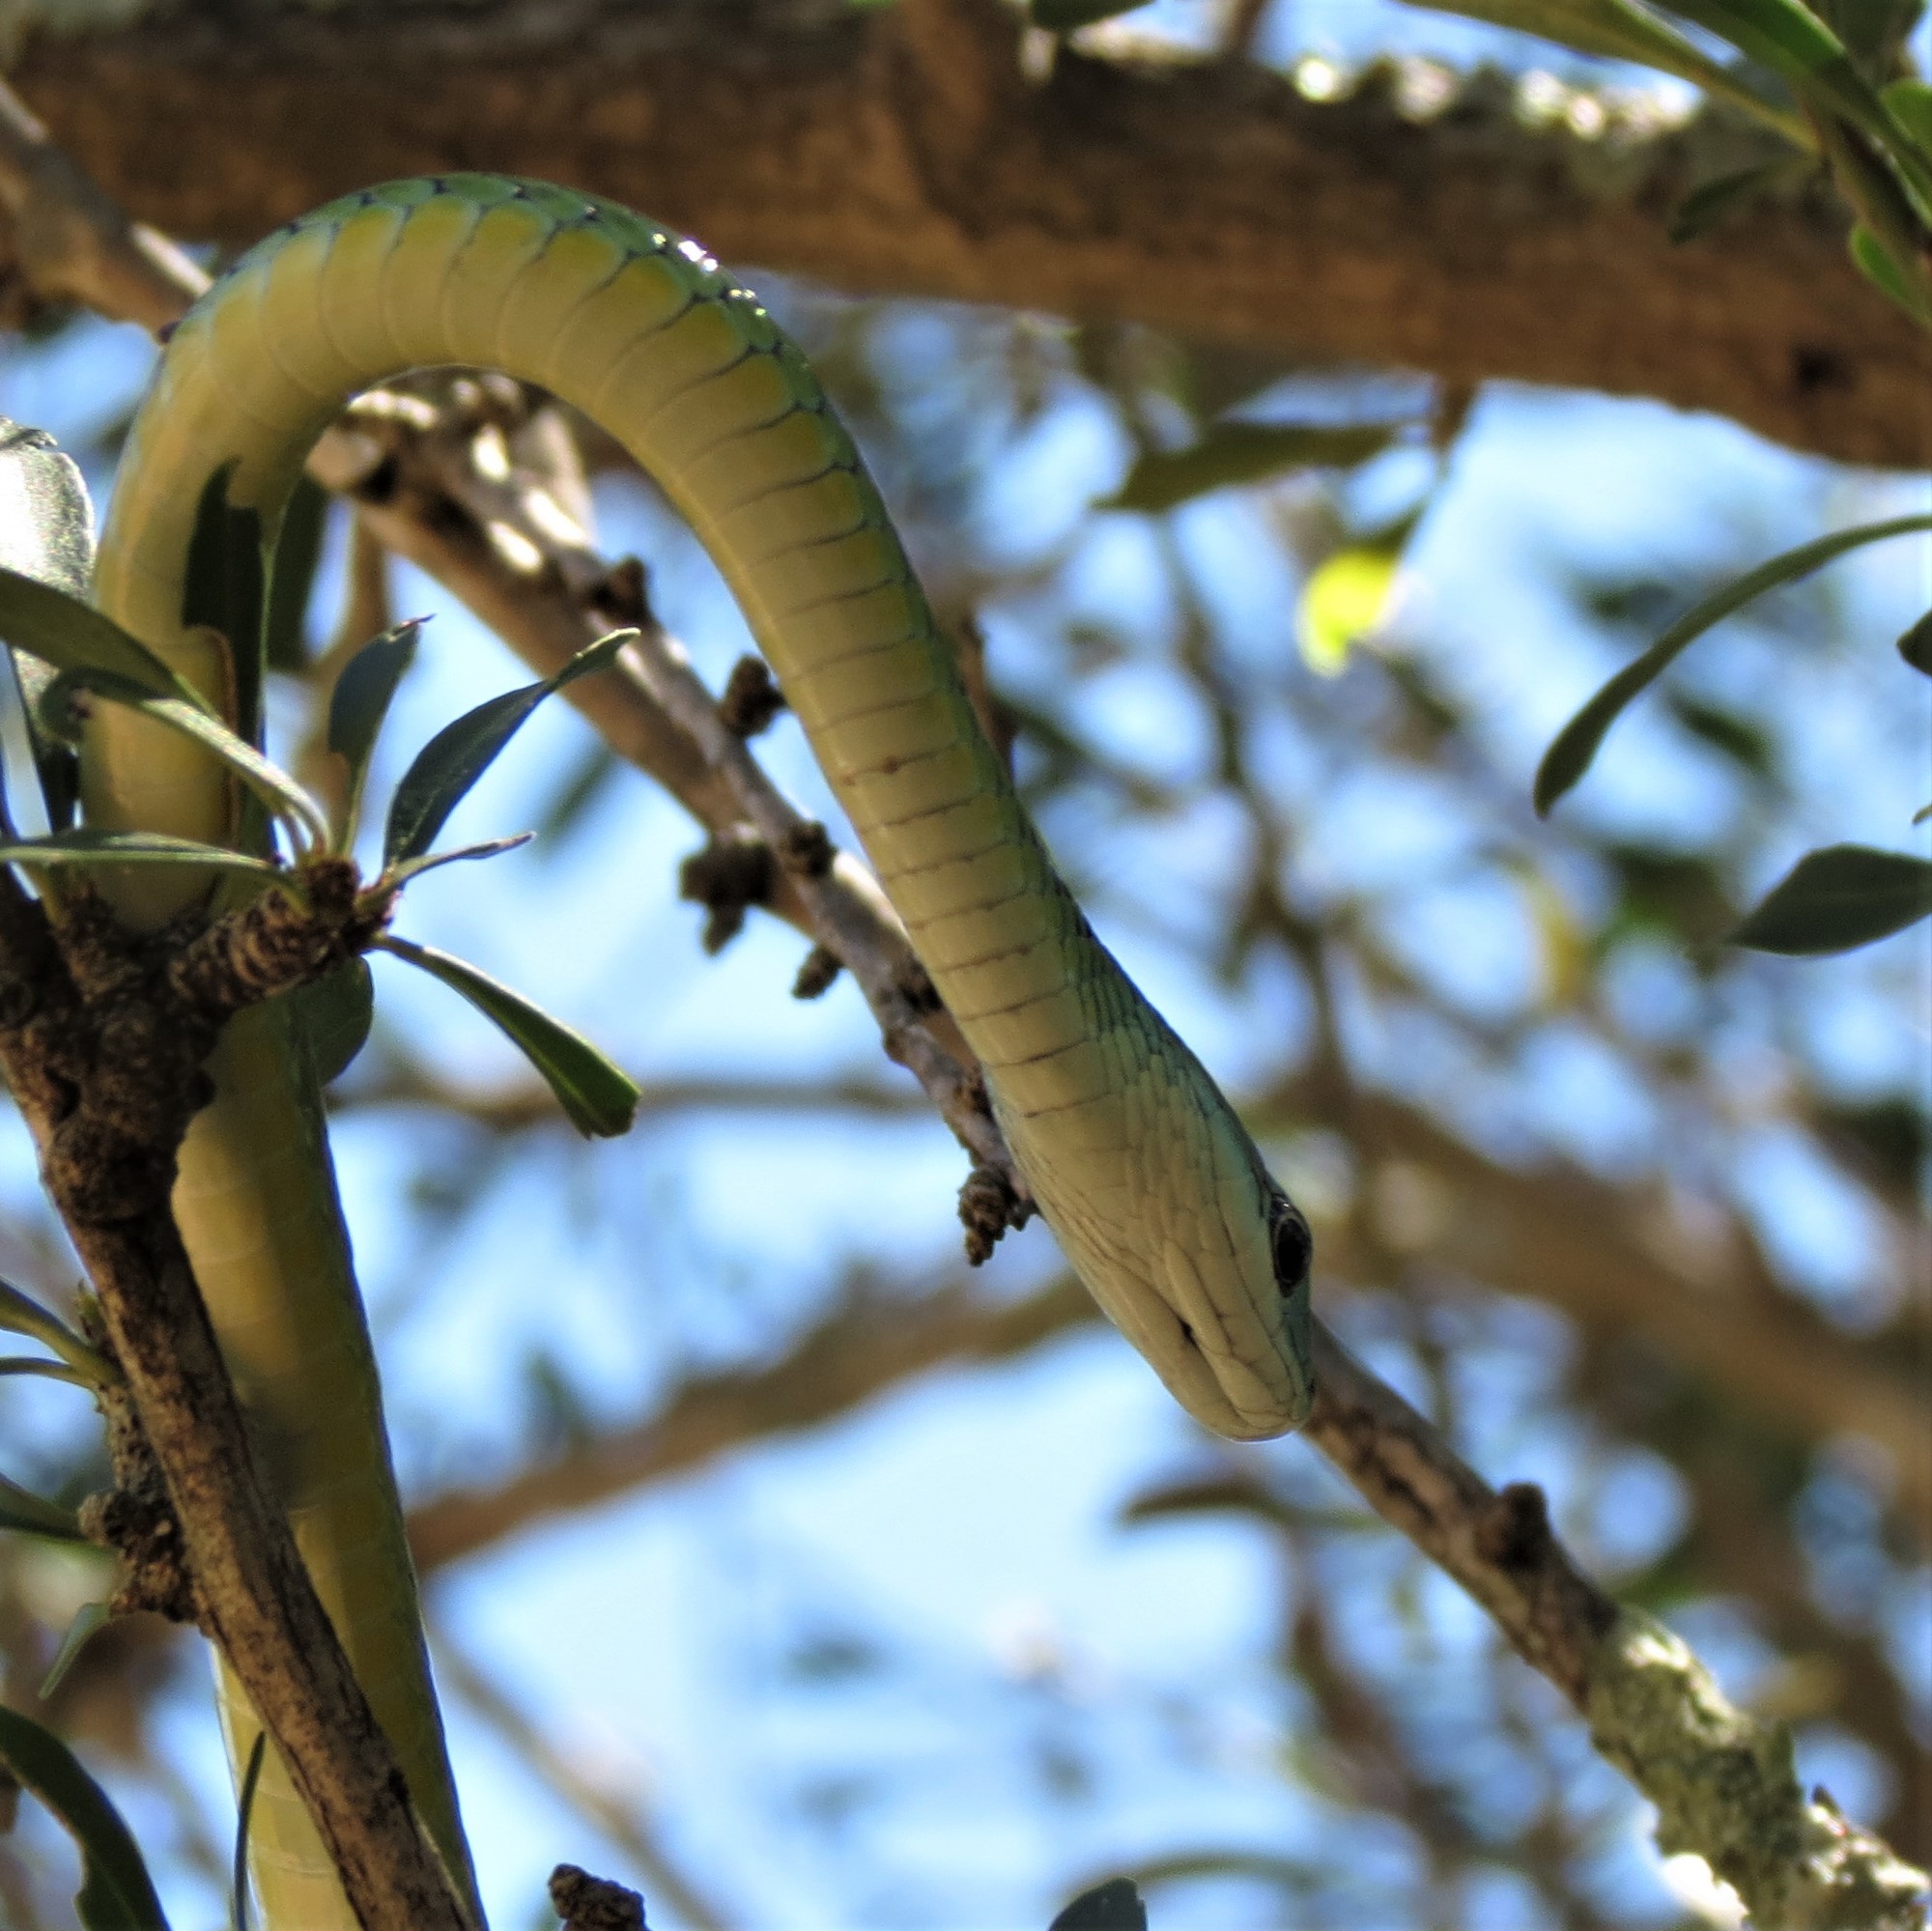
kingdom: Animalia
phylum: Chordata
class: Squamata
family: Colubridae
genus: Philothamnus
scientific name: Philothamnus occidentalis
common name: Western natal green snake
